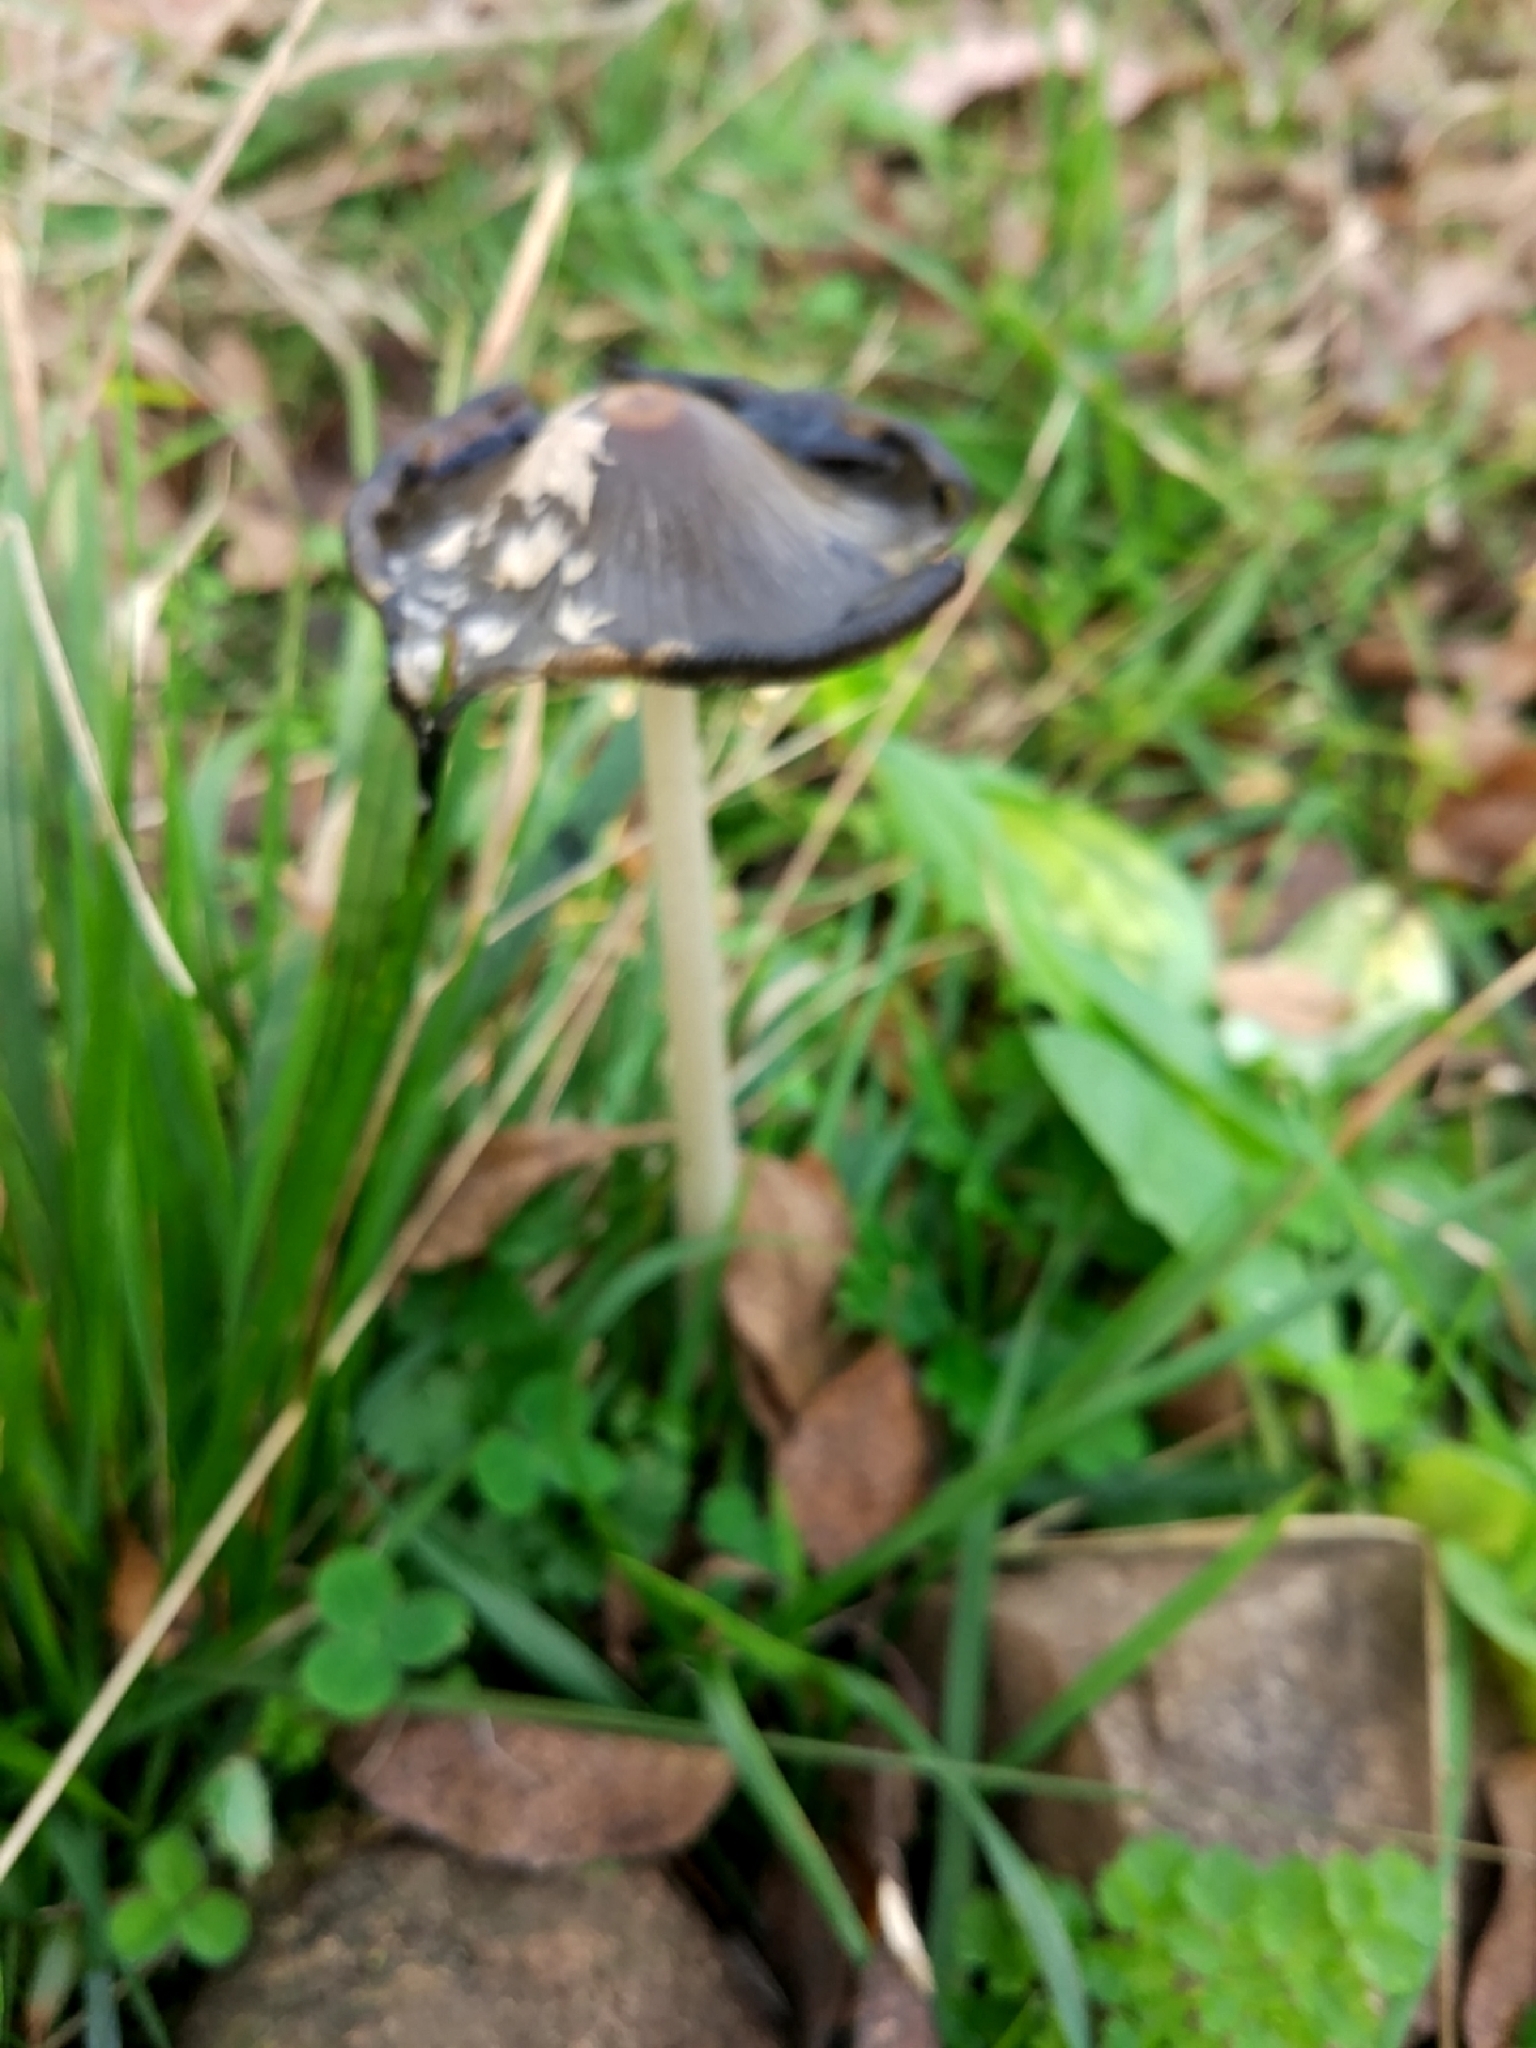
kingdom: Fungi
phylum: Basidiomycota
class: Agaricomycetes
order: Agaricales
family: Psathyrellaceae
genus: Coprinopsis
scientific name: Coprinopsis picacea
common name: Magpie inkcap
